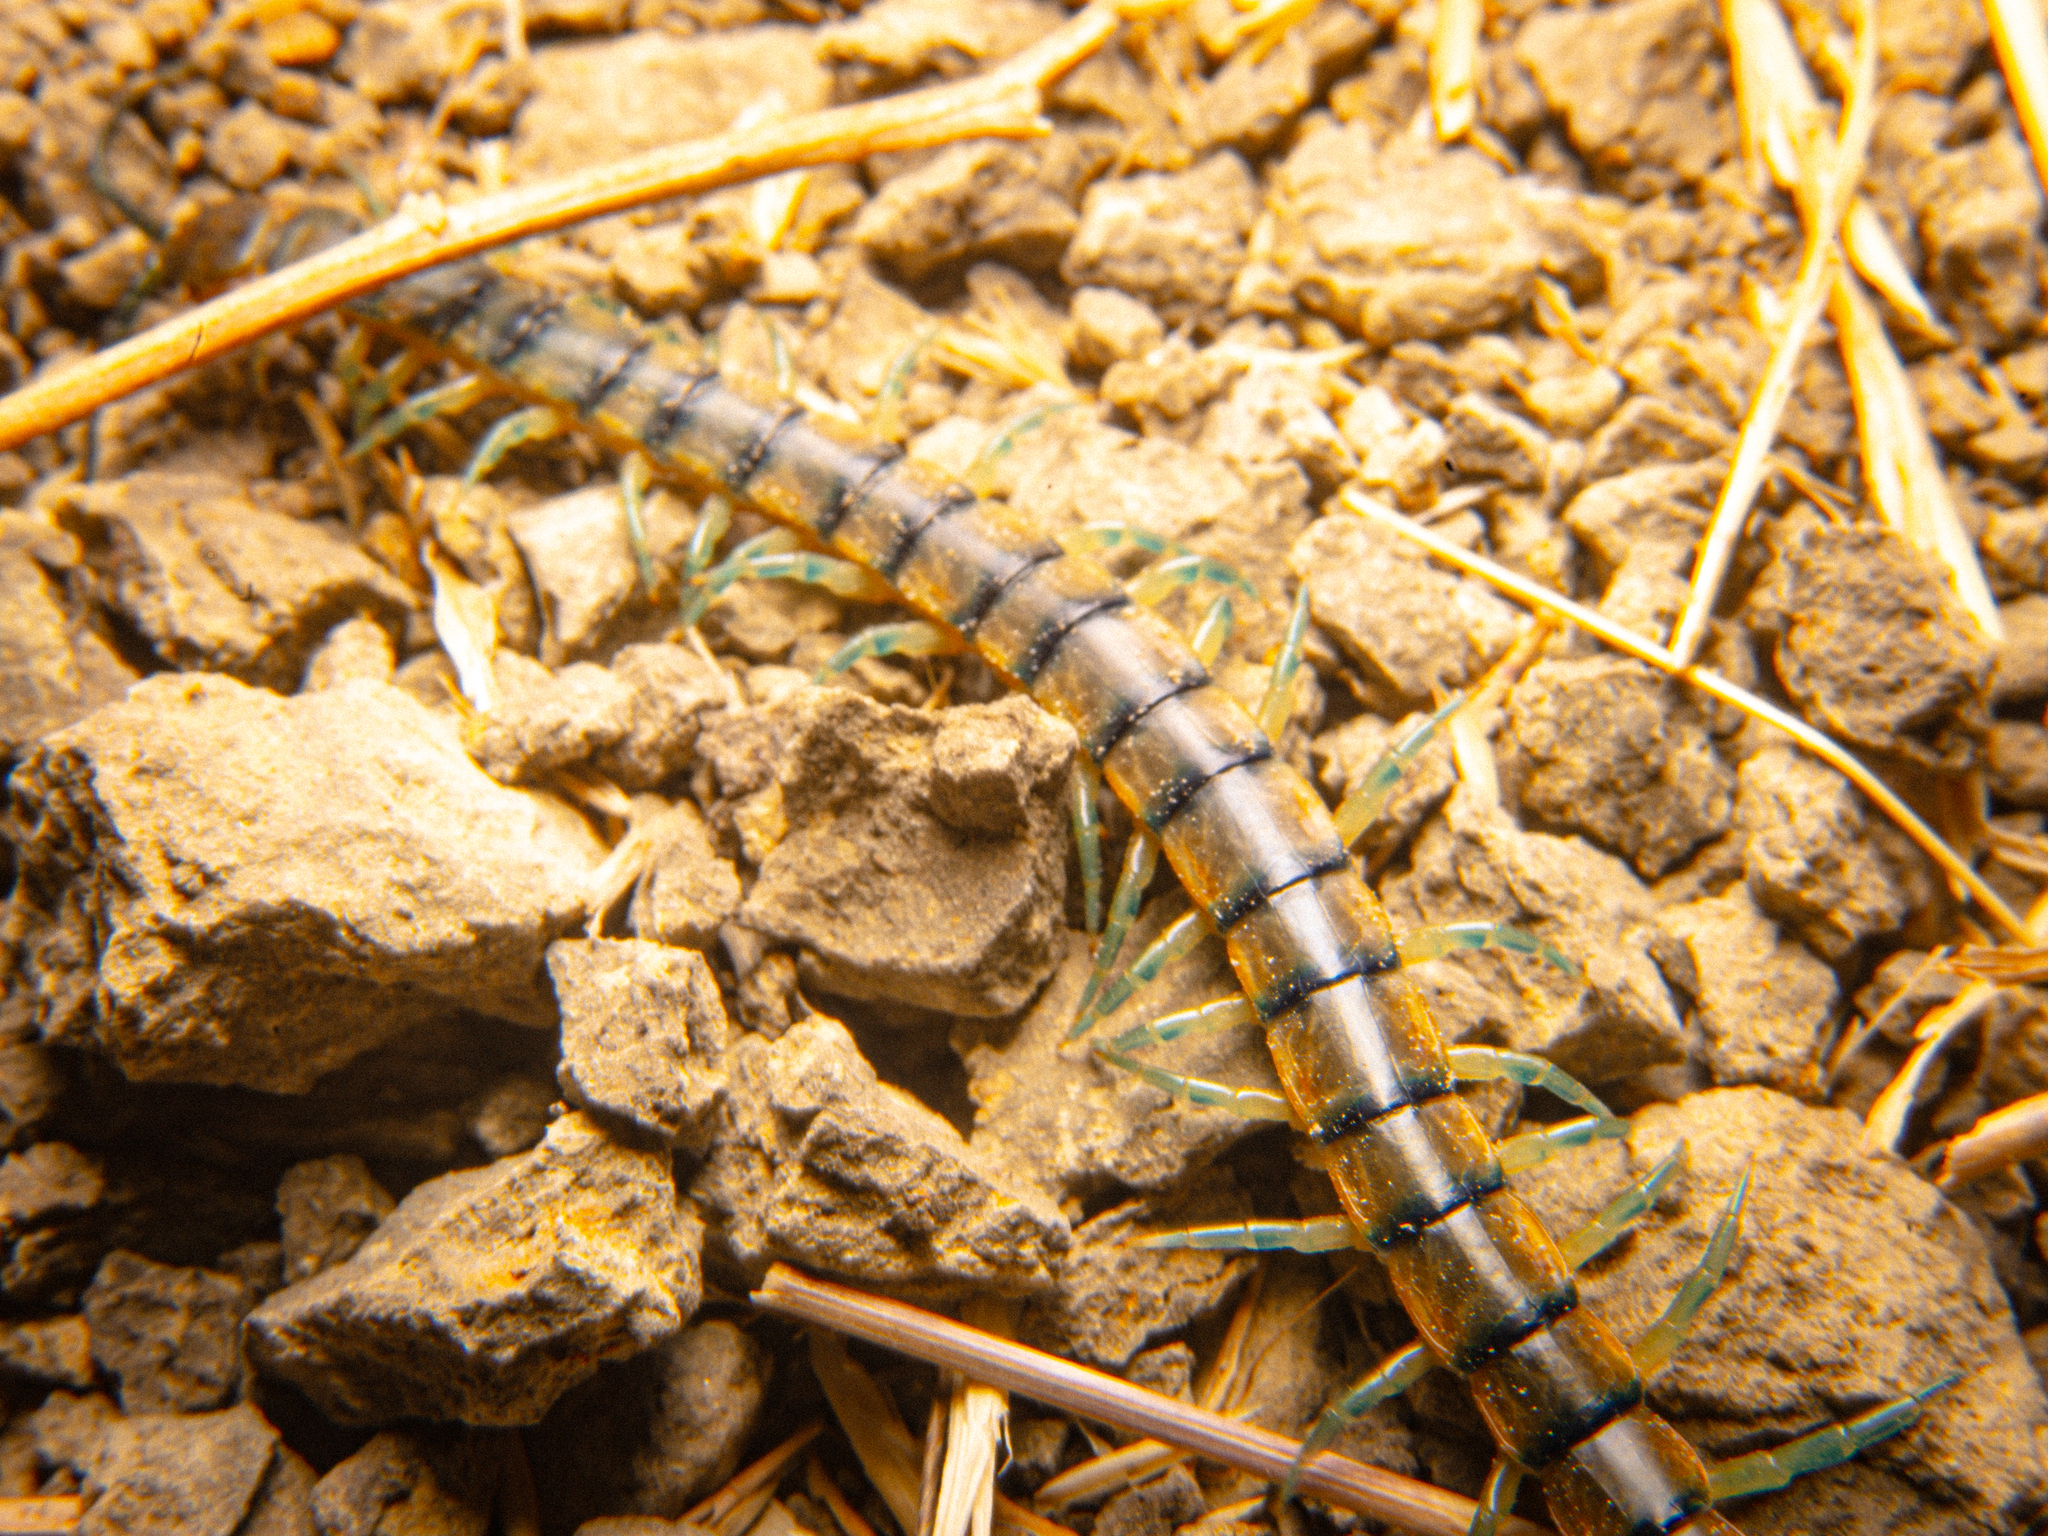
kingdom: Animalia
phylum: Arthropoda
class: Chilopoda
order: Scolopendromorpha
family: Scolopendridae
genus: Scolopendra
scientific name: Scolopendra polymorpha
